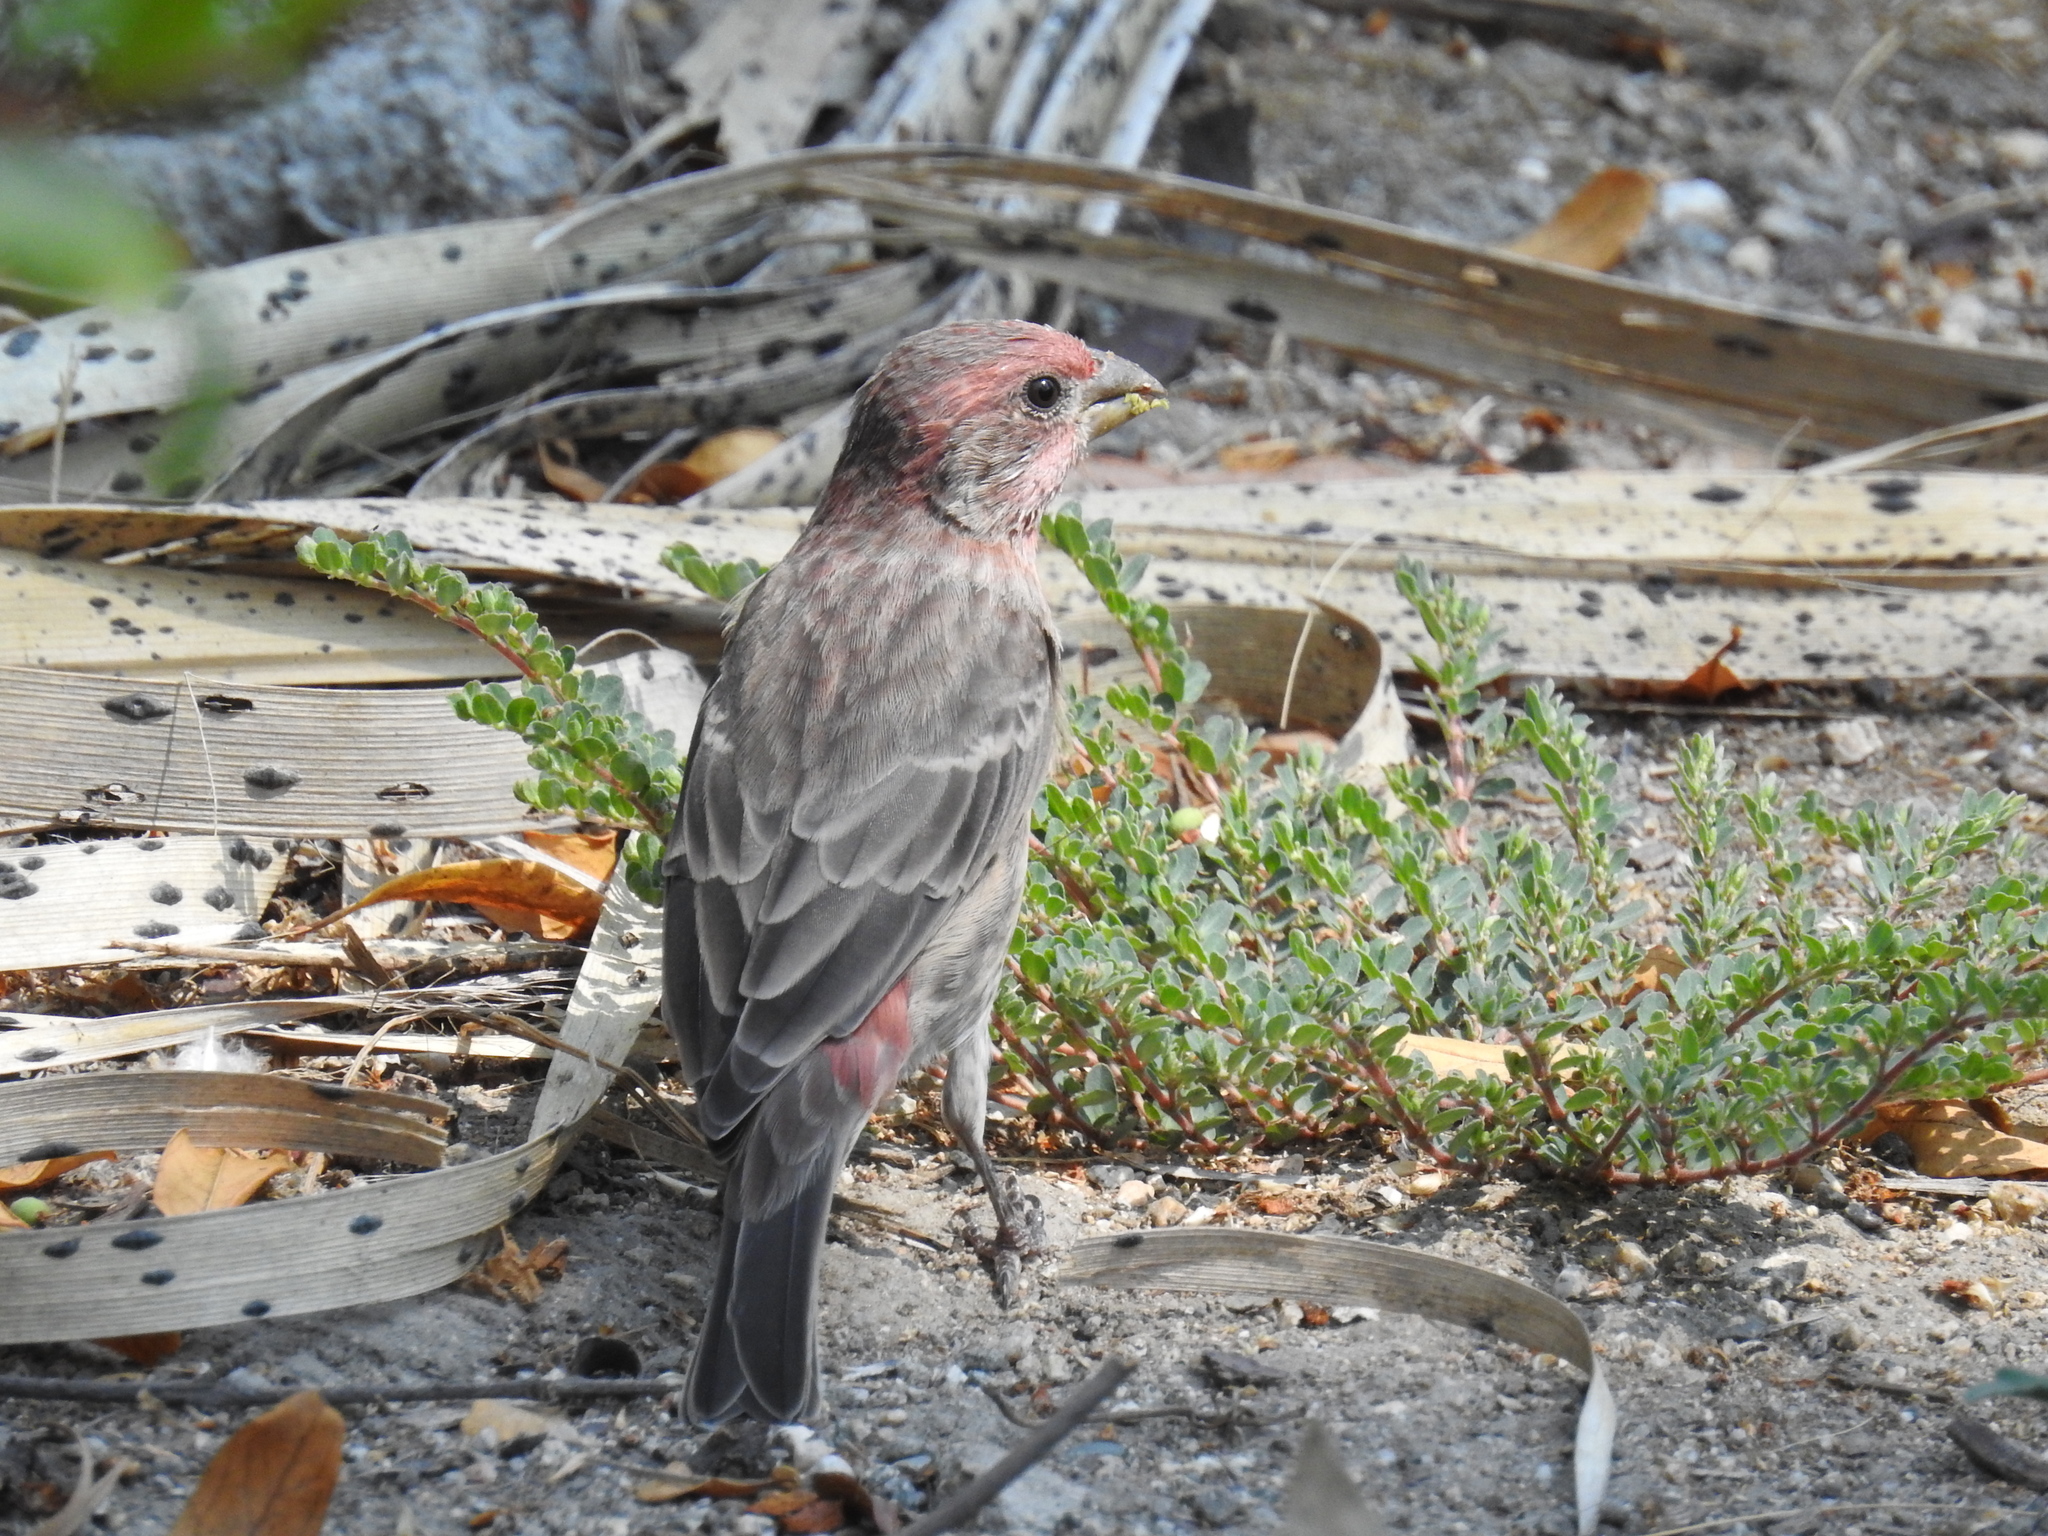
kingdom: Animalia
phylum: Chordata
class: Aves
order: Passeriformes
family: Fringillidae
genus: Haemorhous
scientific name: Haemorhous mexicanus
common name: House finch
